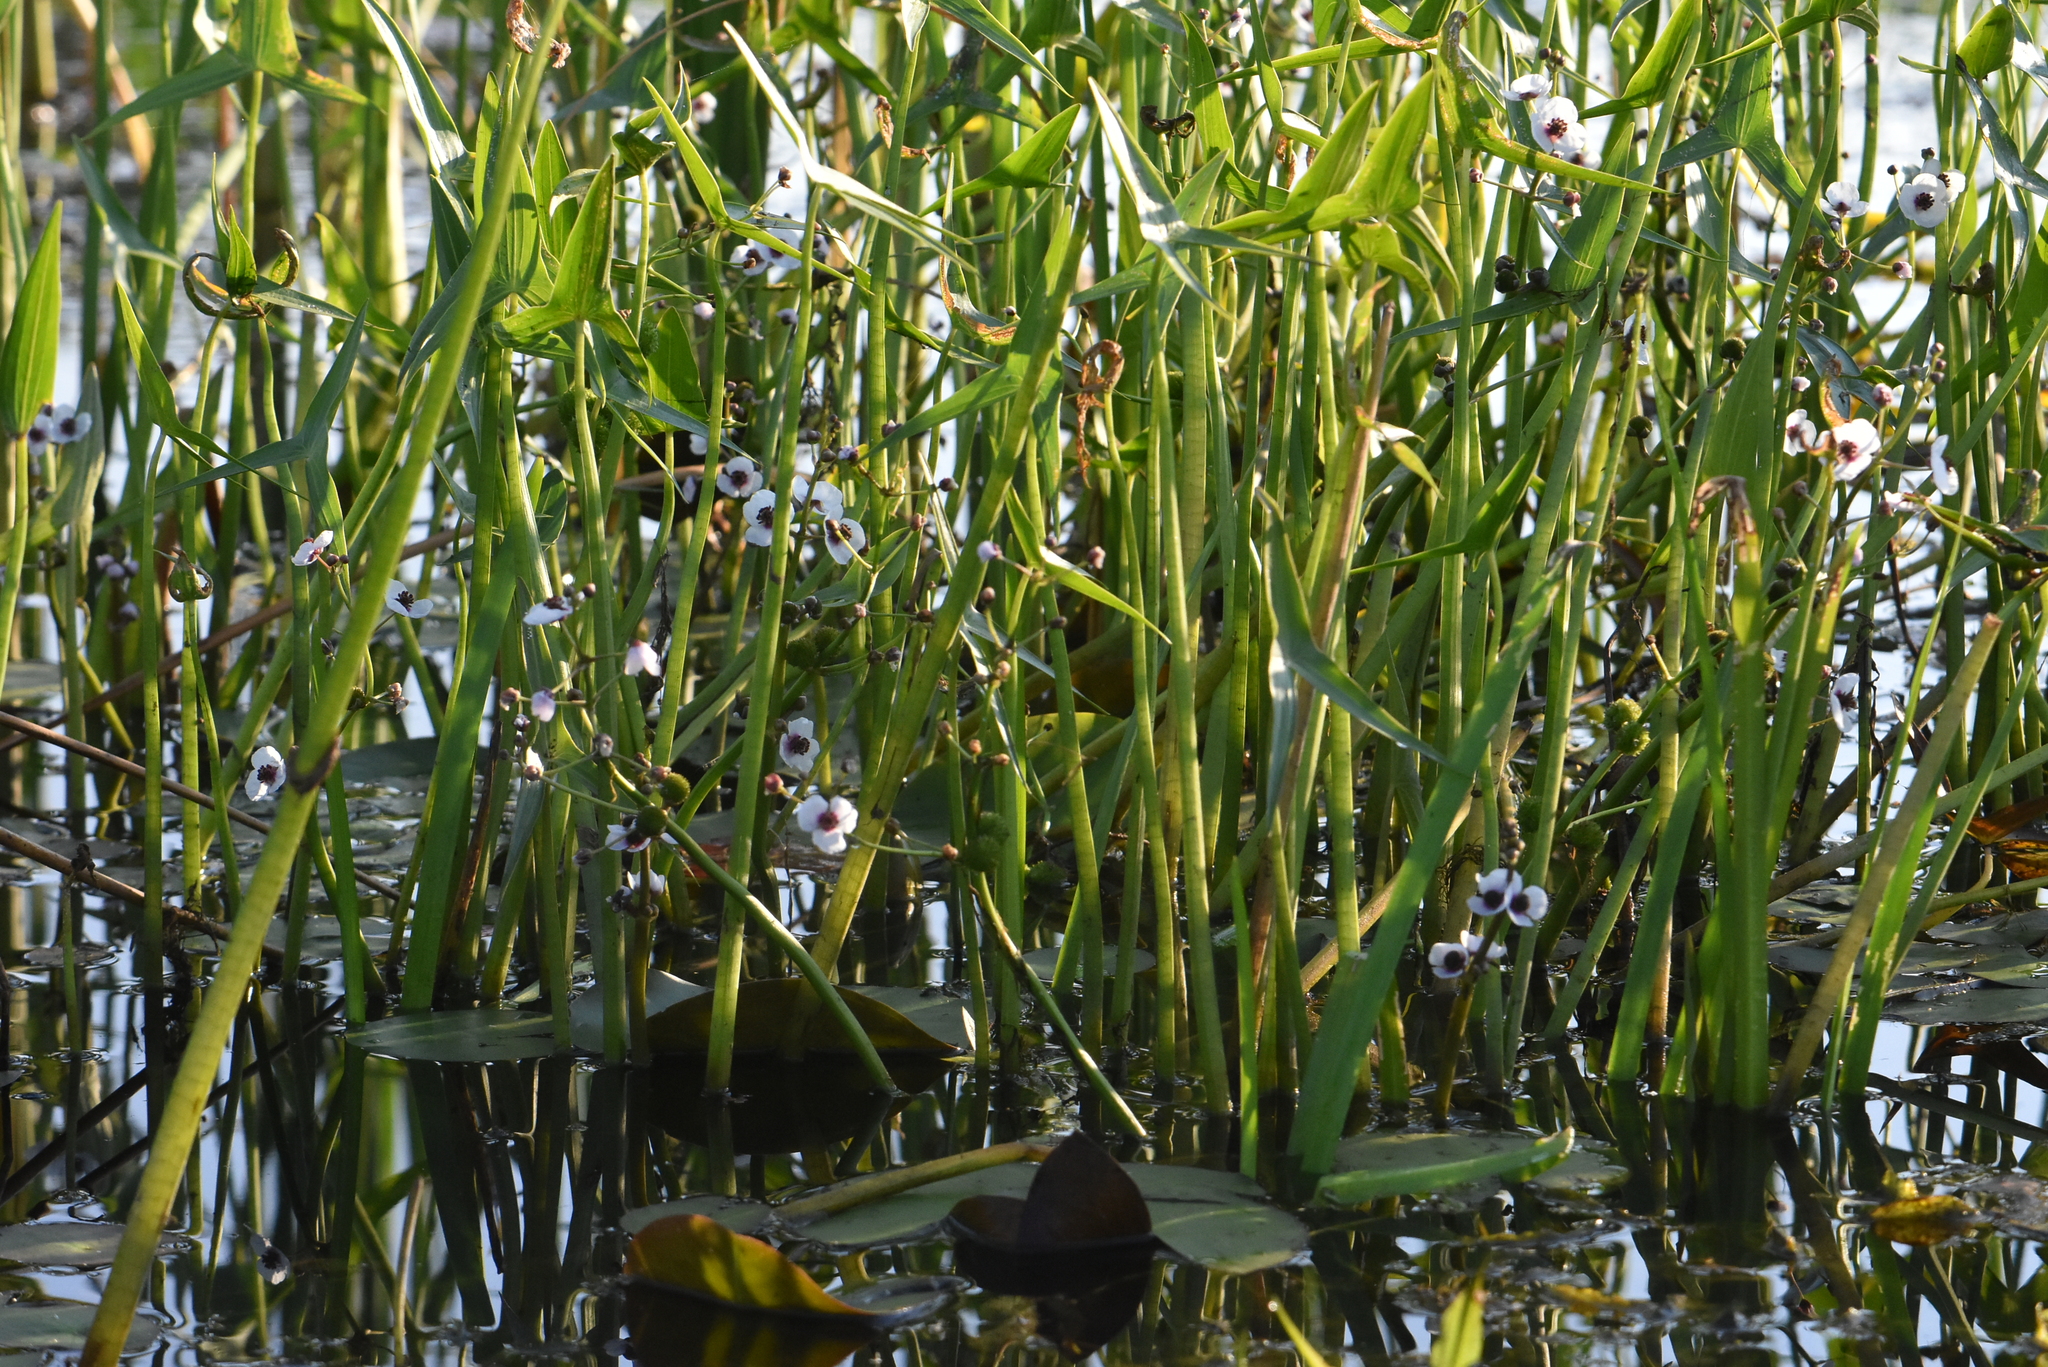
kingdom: Plantae
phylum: Tracheophyta
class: Liliopsida
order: Alismatales
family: Alismataceae
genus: Sagittaria
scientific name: Sagittaria sagittifolia
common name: Arrowhead
